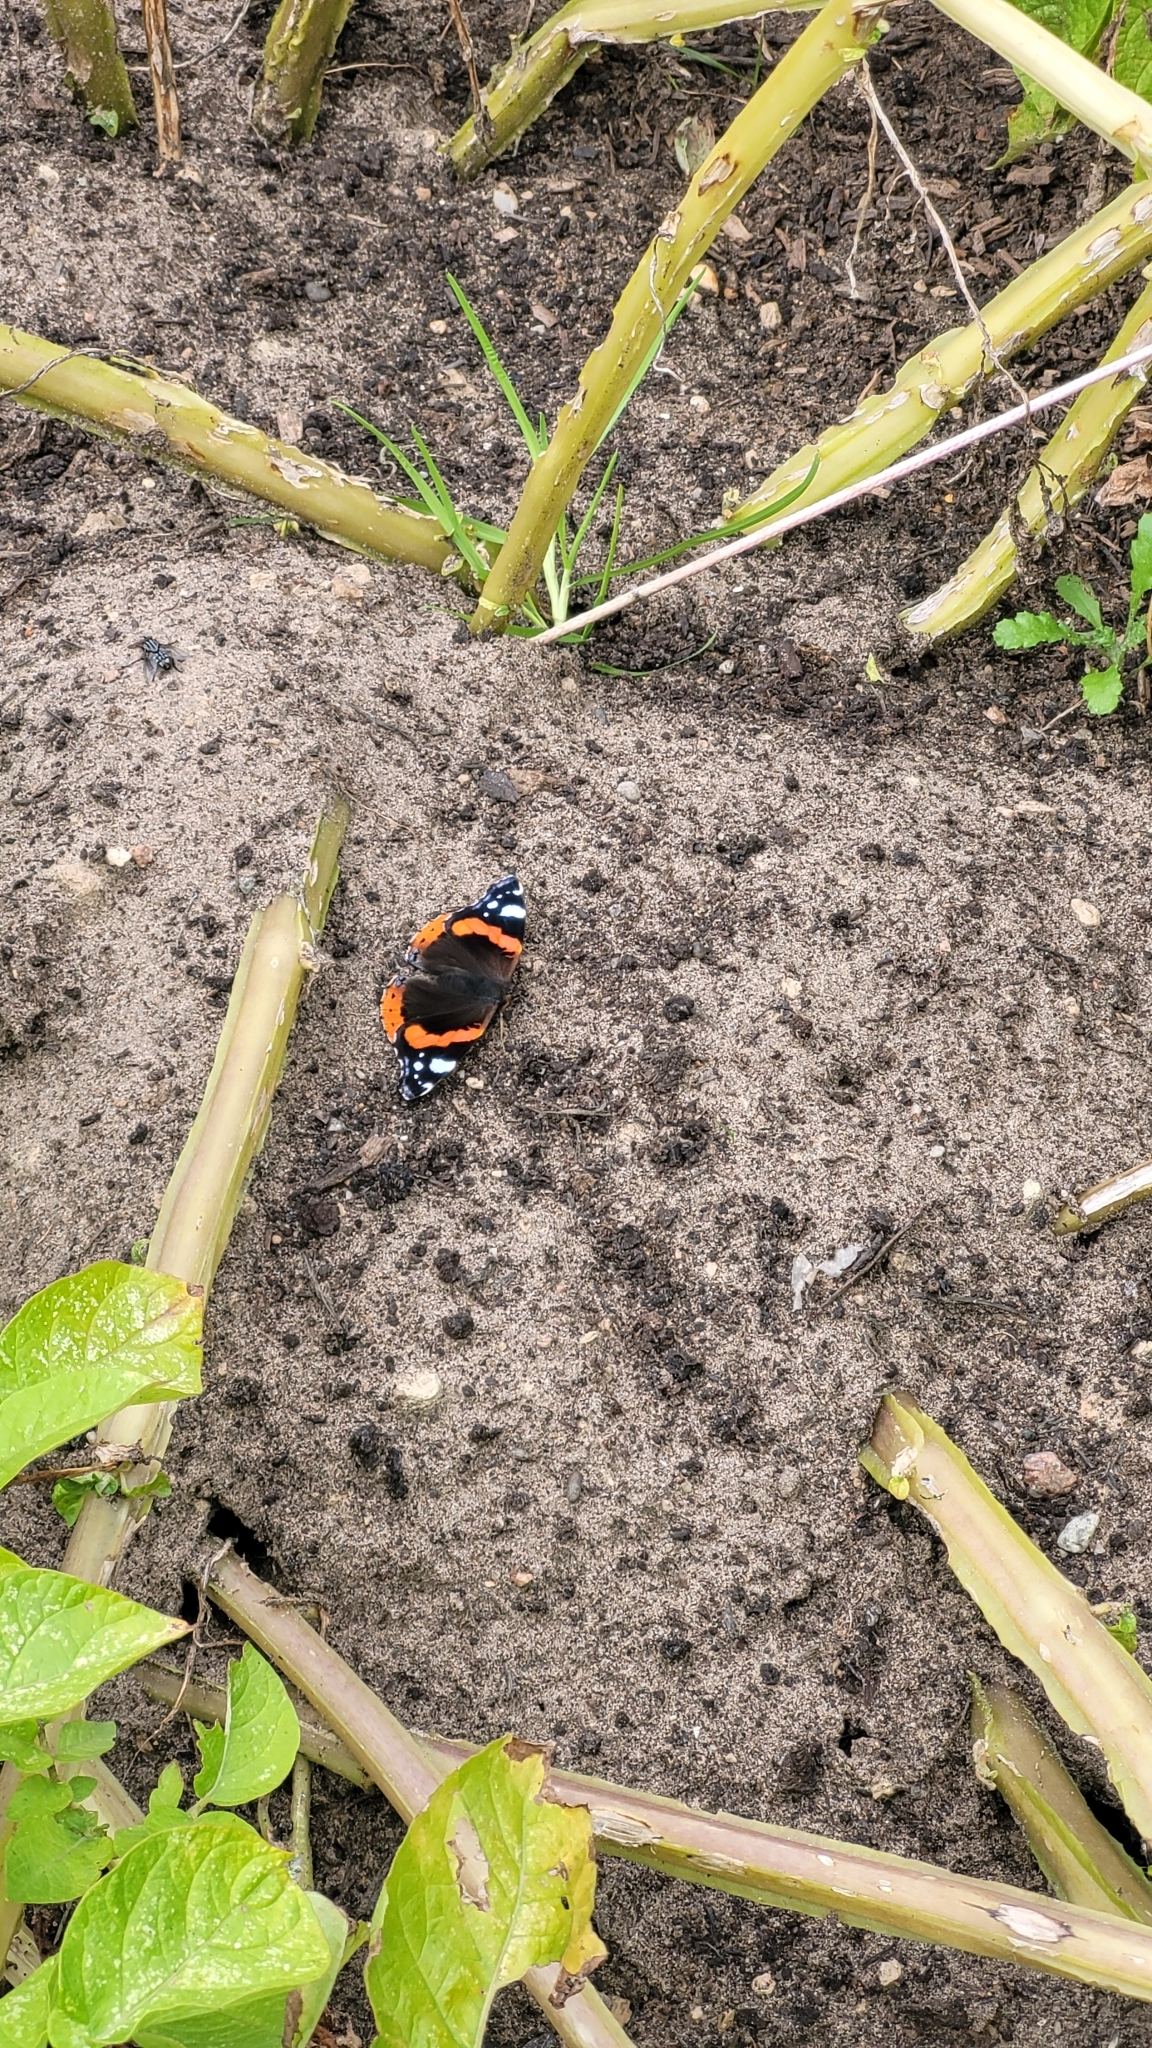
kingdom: Animalia
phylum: Arthropoda
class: Insecta
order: Lepidoptera
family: Nymphalidae
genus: Vanessa
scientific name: Vanessa atalanta
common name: Red admiral
